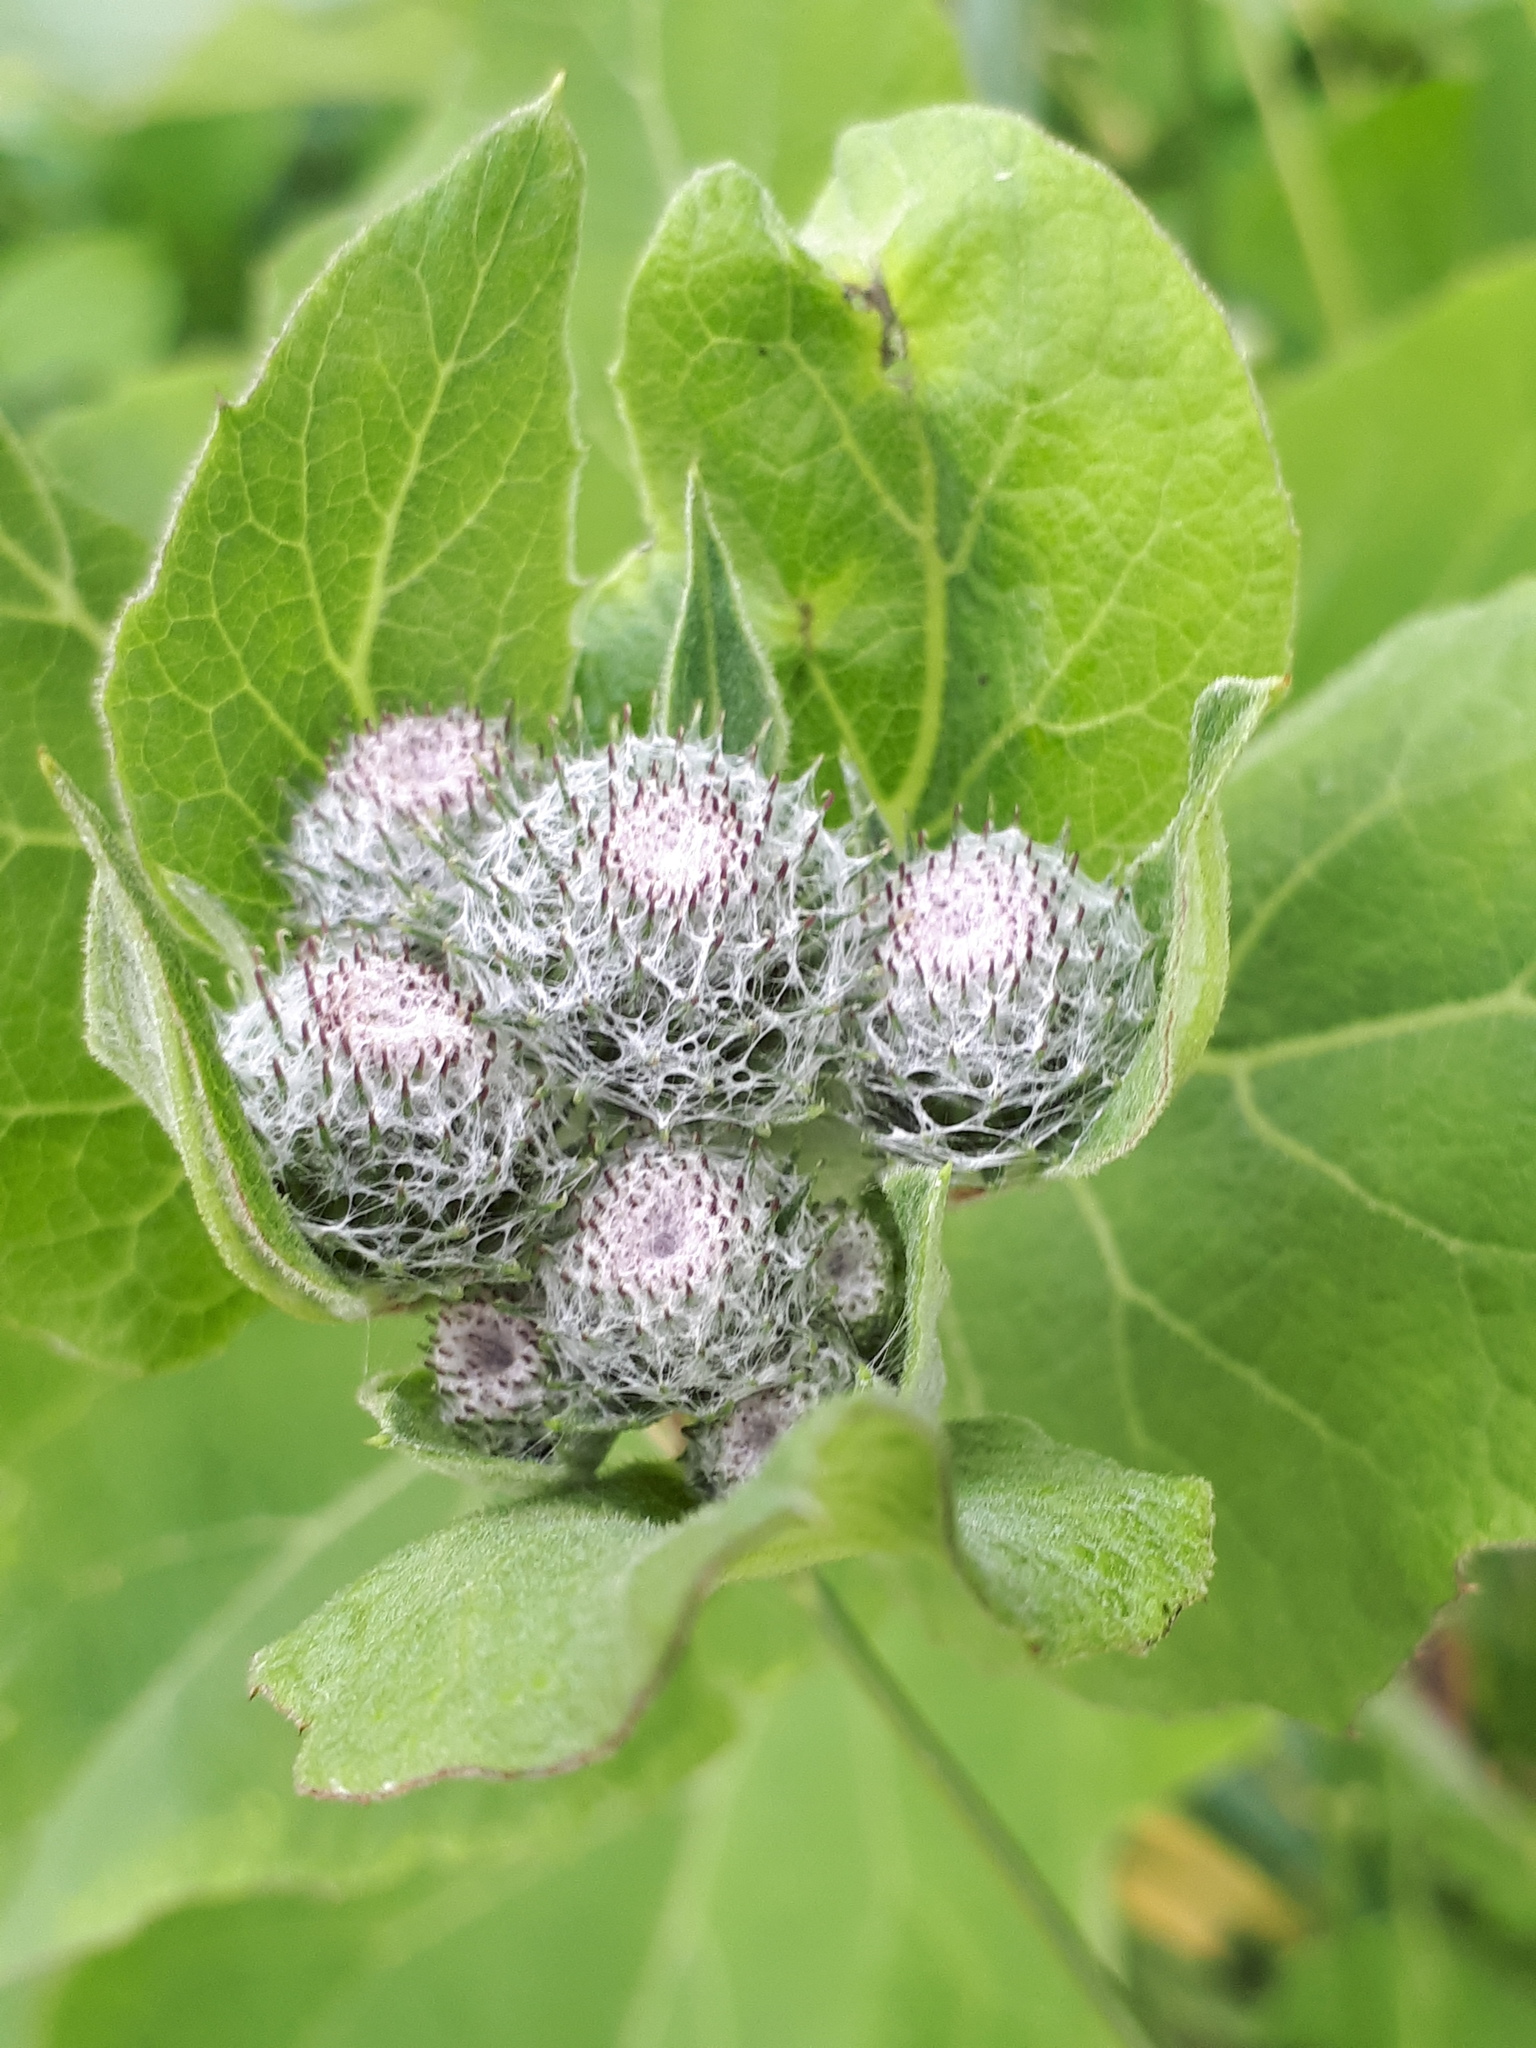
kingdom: Plantae
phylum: Tracheophyta
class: Magnoliopsida
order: Asterales
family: Asteraceae
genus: Arctium
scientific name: Arctium tomentosum
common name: Woolly burdock
